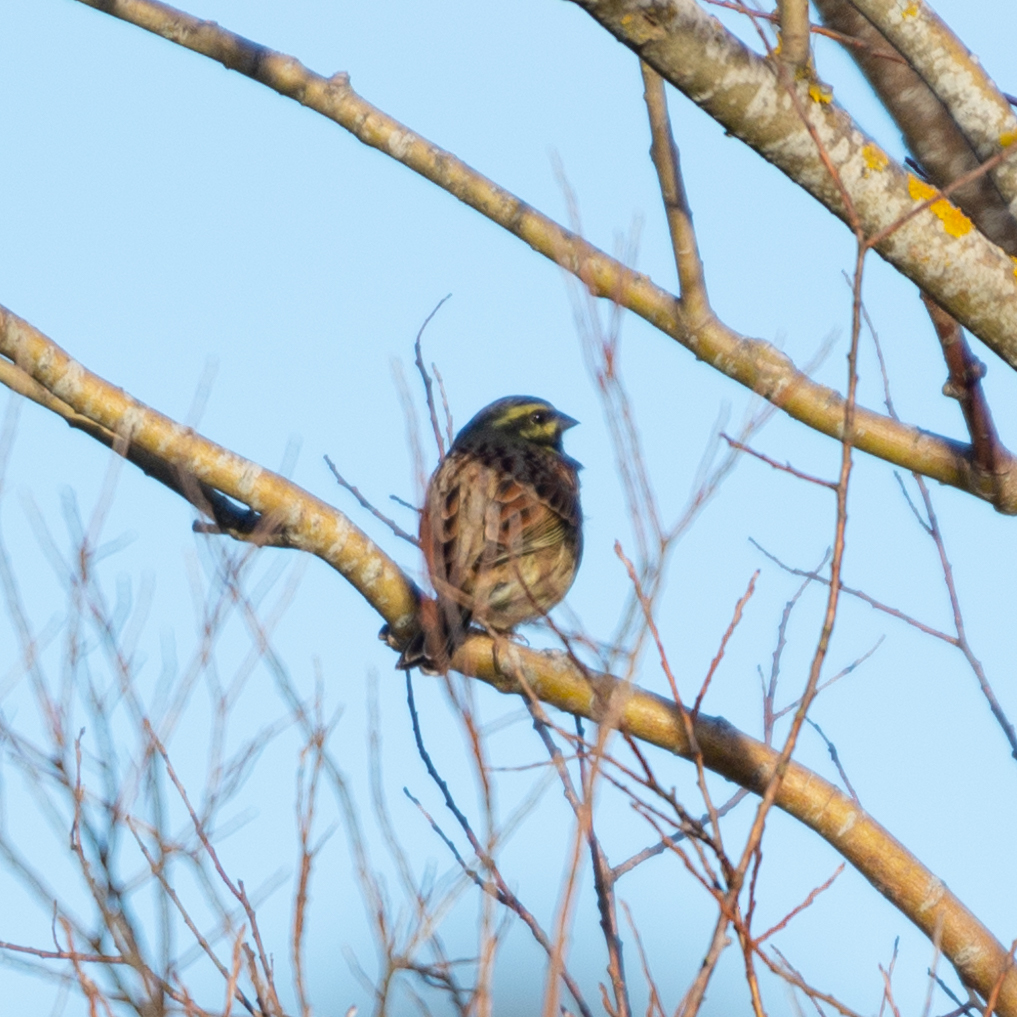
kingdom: Animalia
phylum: Chordata
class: Aves
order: Passeriformes
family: Emberizidae
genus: Emberiza
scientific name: Emberiza cirlus
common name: Cirl bunting
